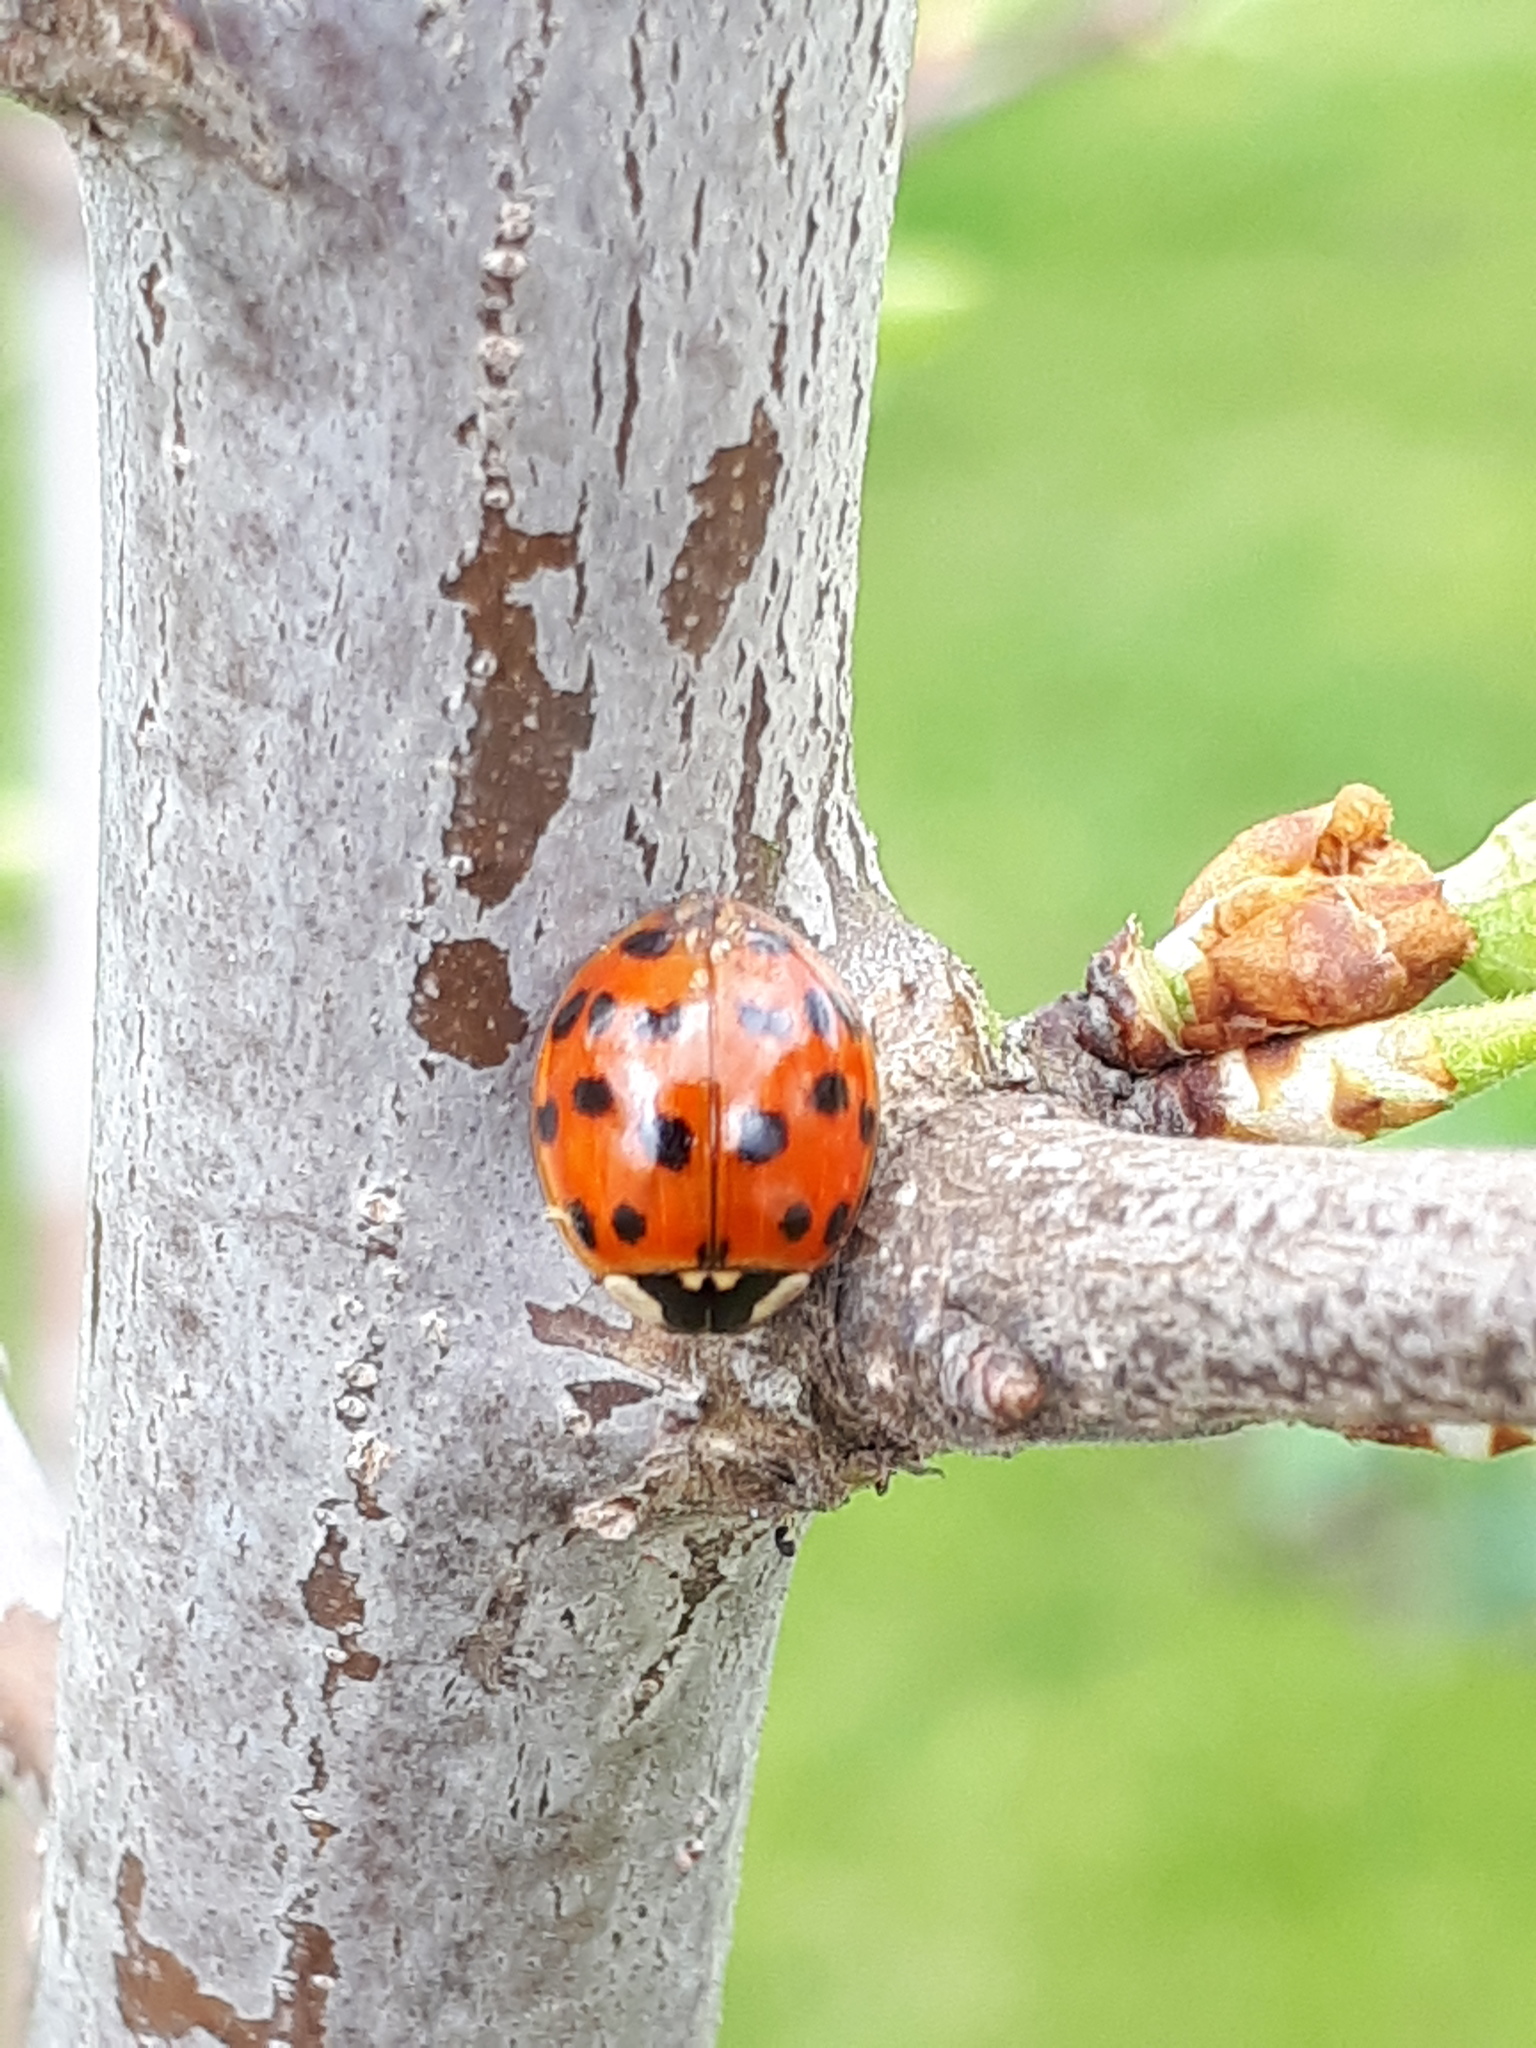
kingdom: Fungi
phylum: Ascomycota
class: Laboulbeniomycetes
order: Laboulbeniales
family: Laboulbeniaceae
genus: Hesperomyces
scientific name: Hesperomyces harmoniae
